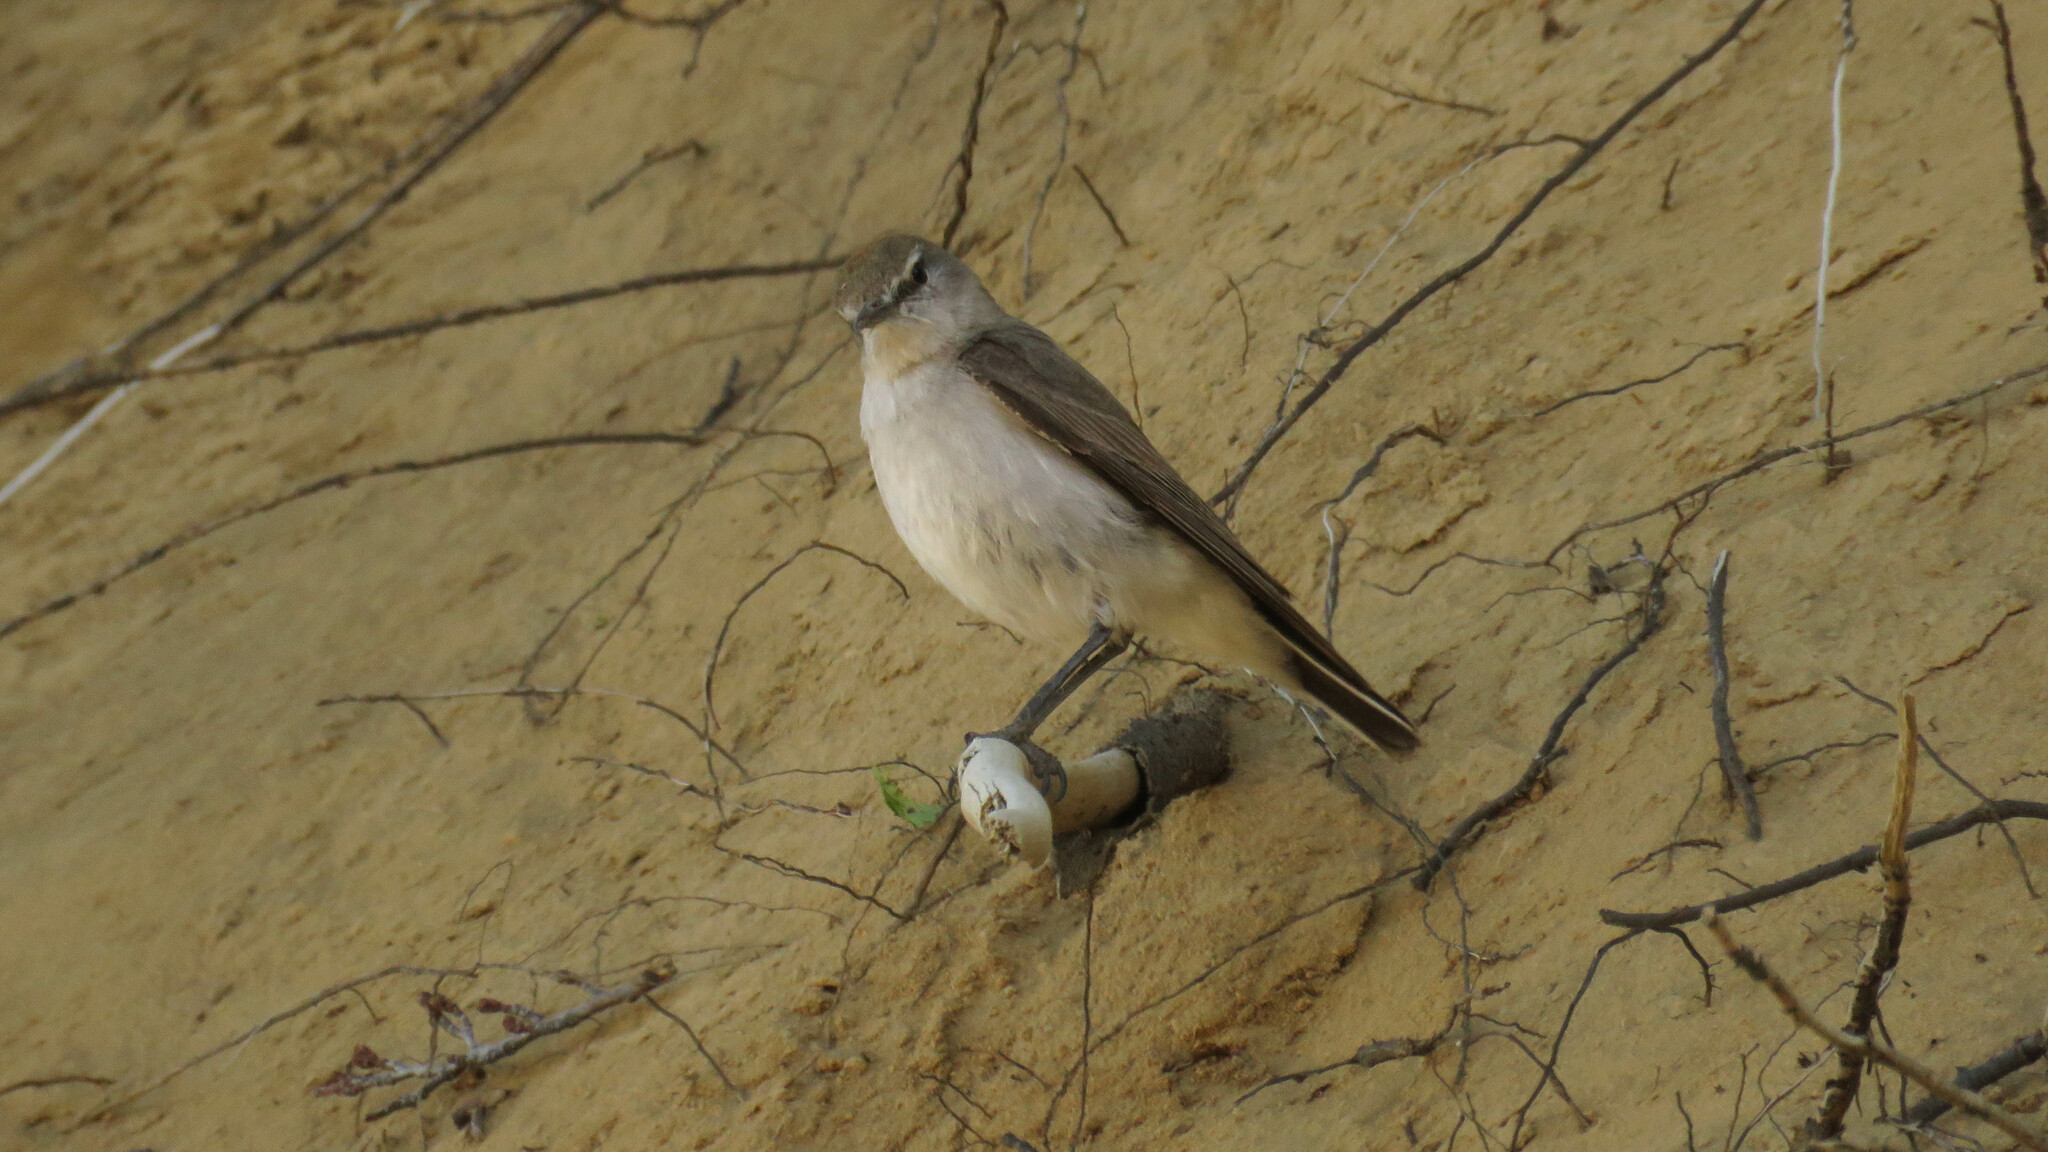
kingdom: Animalia
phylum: Chordata
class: Aves
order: Passeriformes
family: Tyrannidae
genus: Muscisaxicola
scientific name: Muscisaxicola albilora
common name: White-browed ground tyrant
